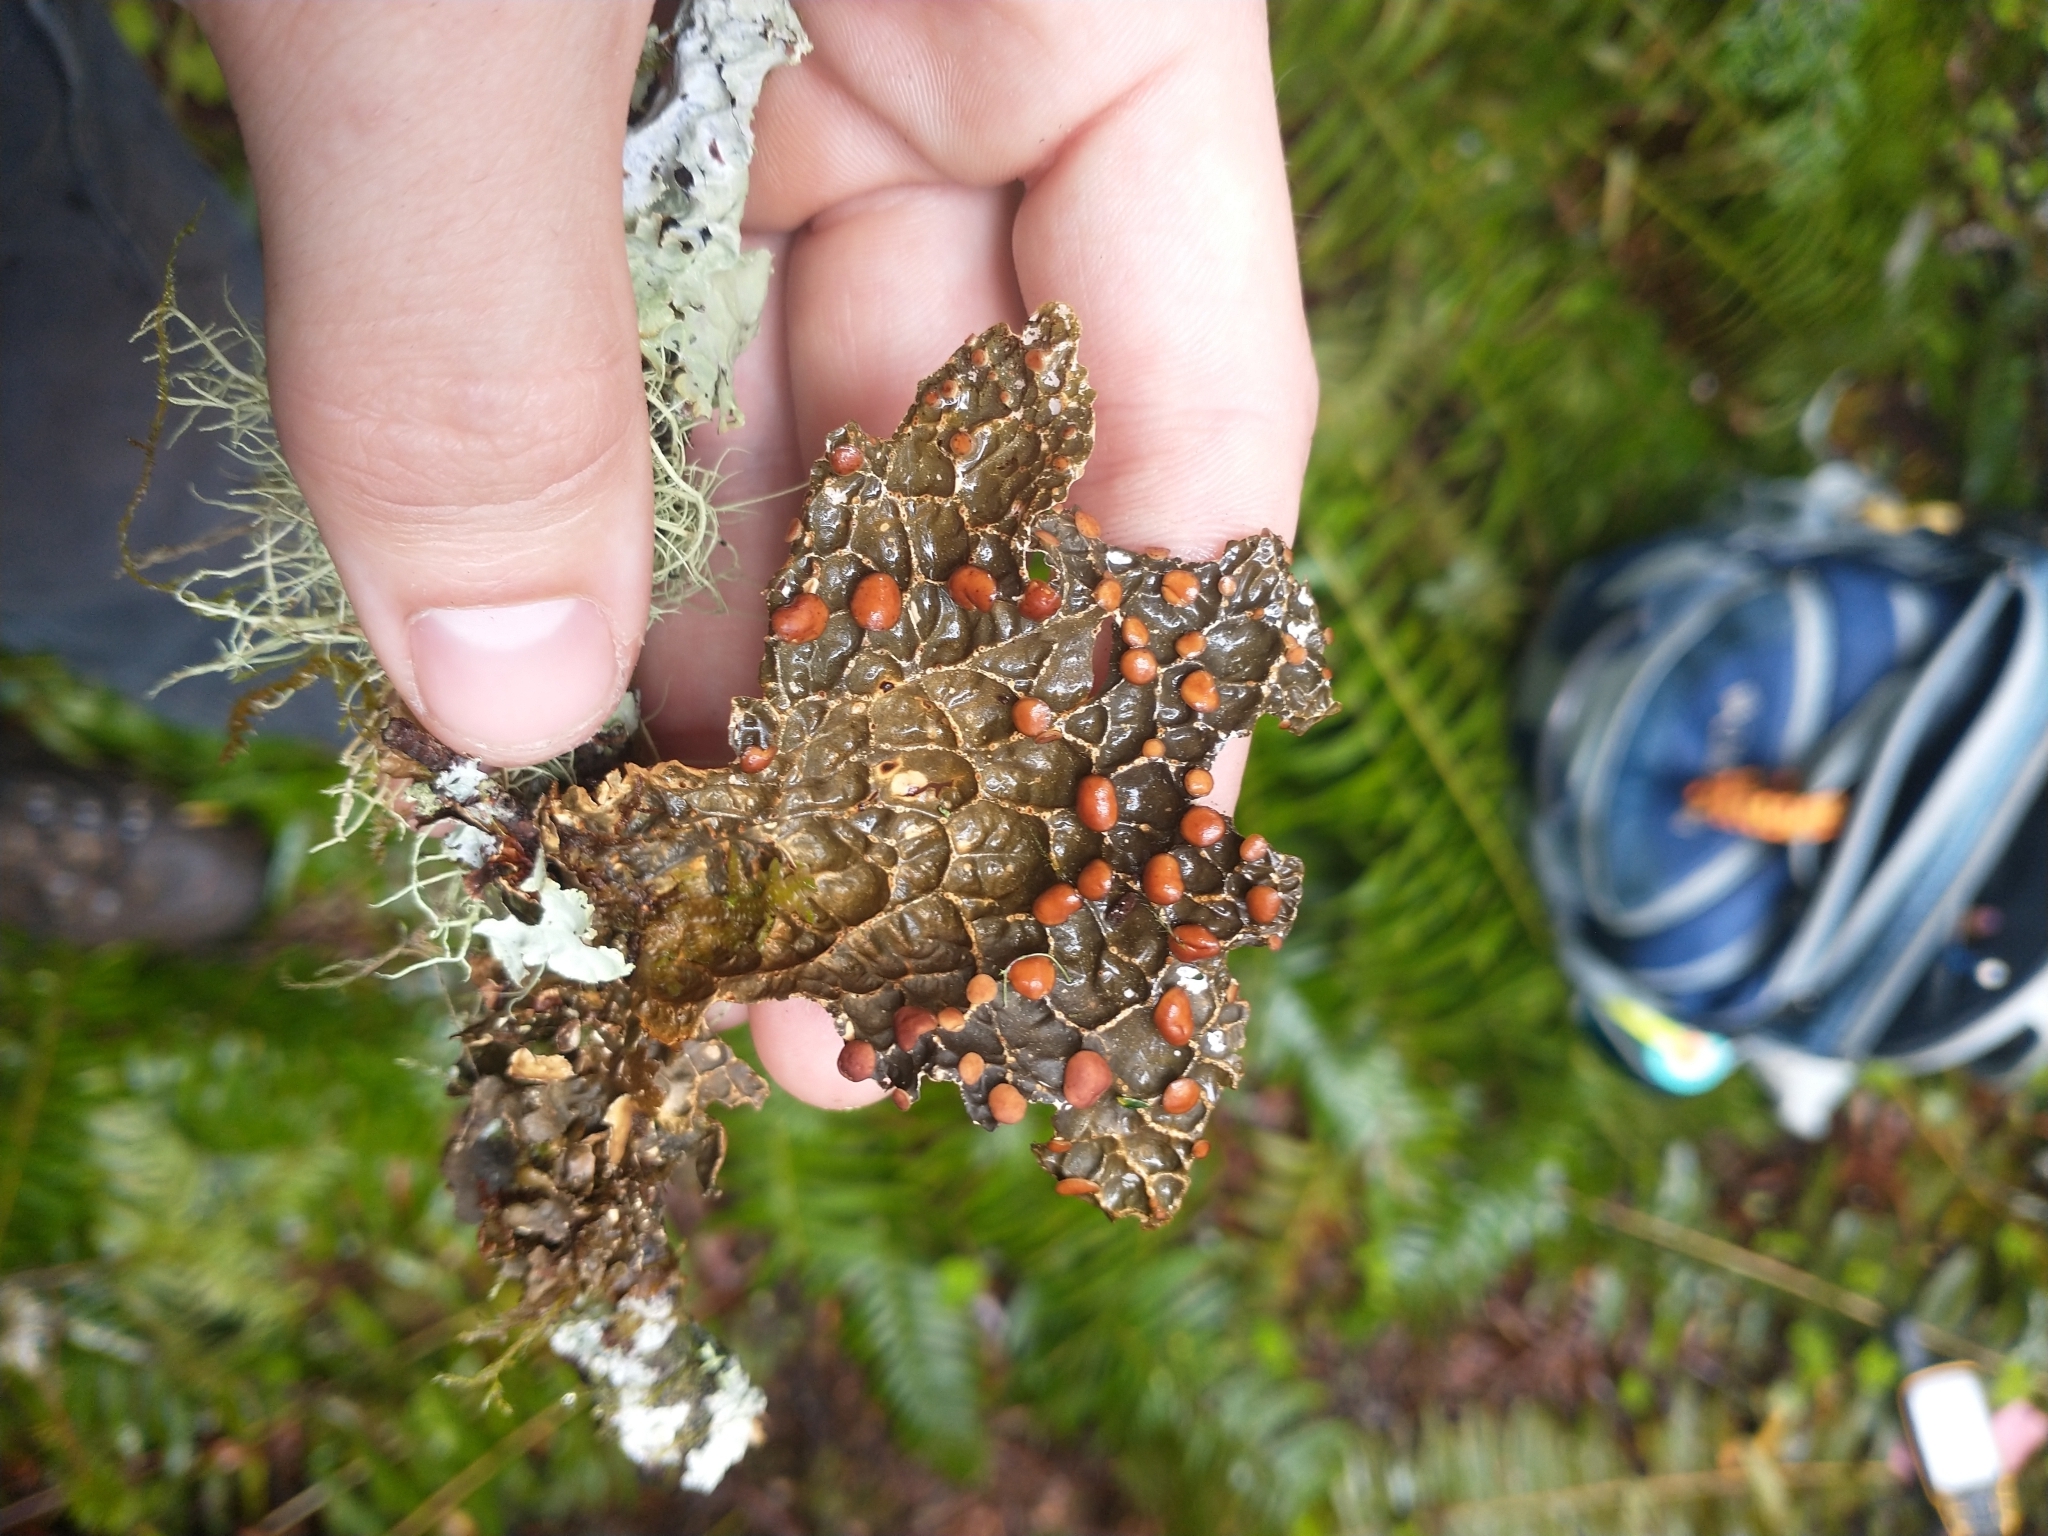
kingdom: Fungi
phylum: Ascomycota
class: Lecanoromycetes
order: Peltigerales
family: Lobariaceae
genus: Lobaria
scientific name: Lobaria anthraspis
